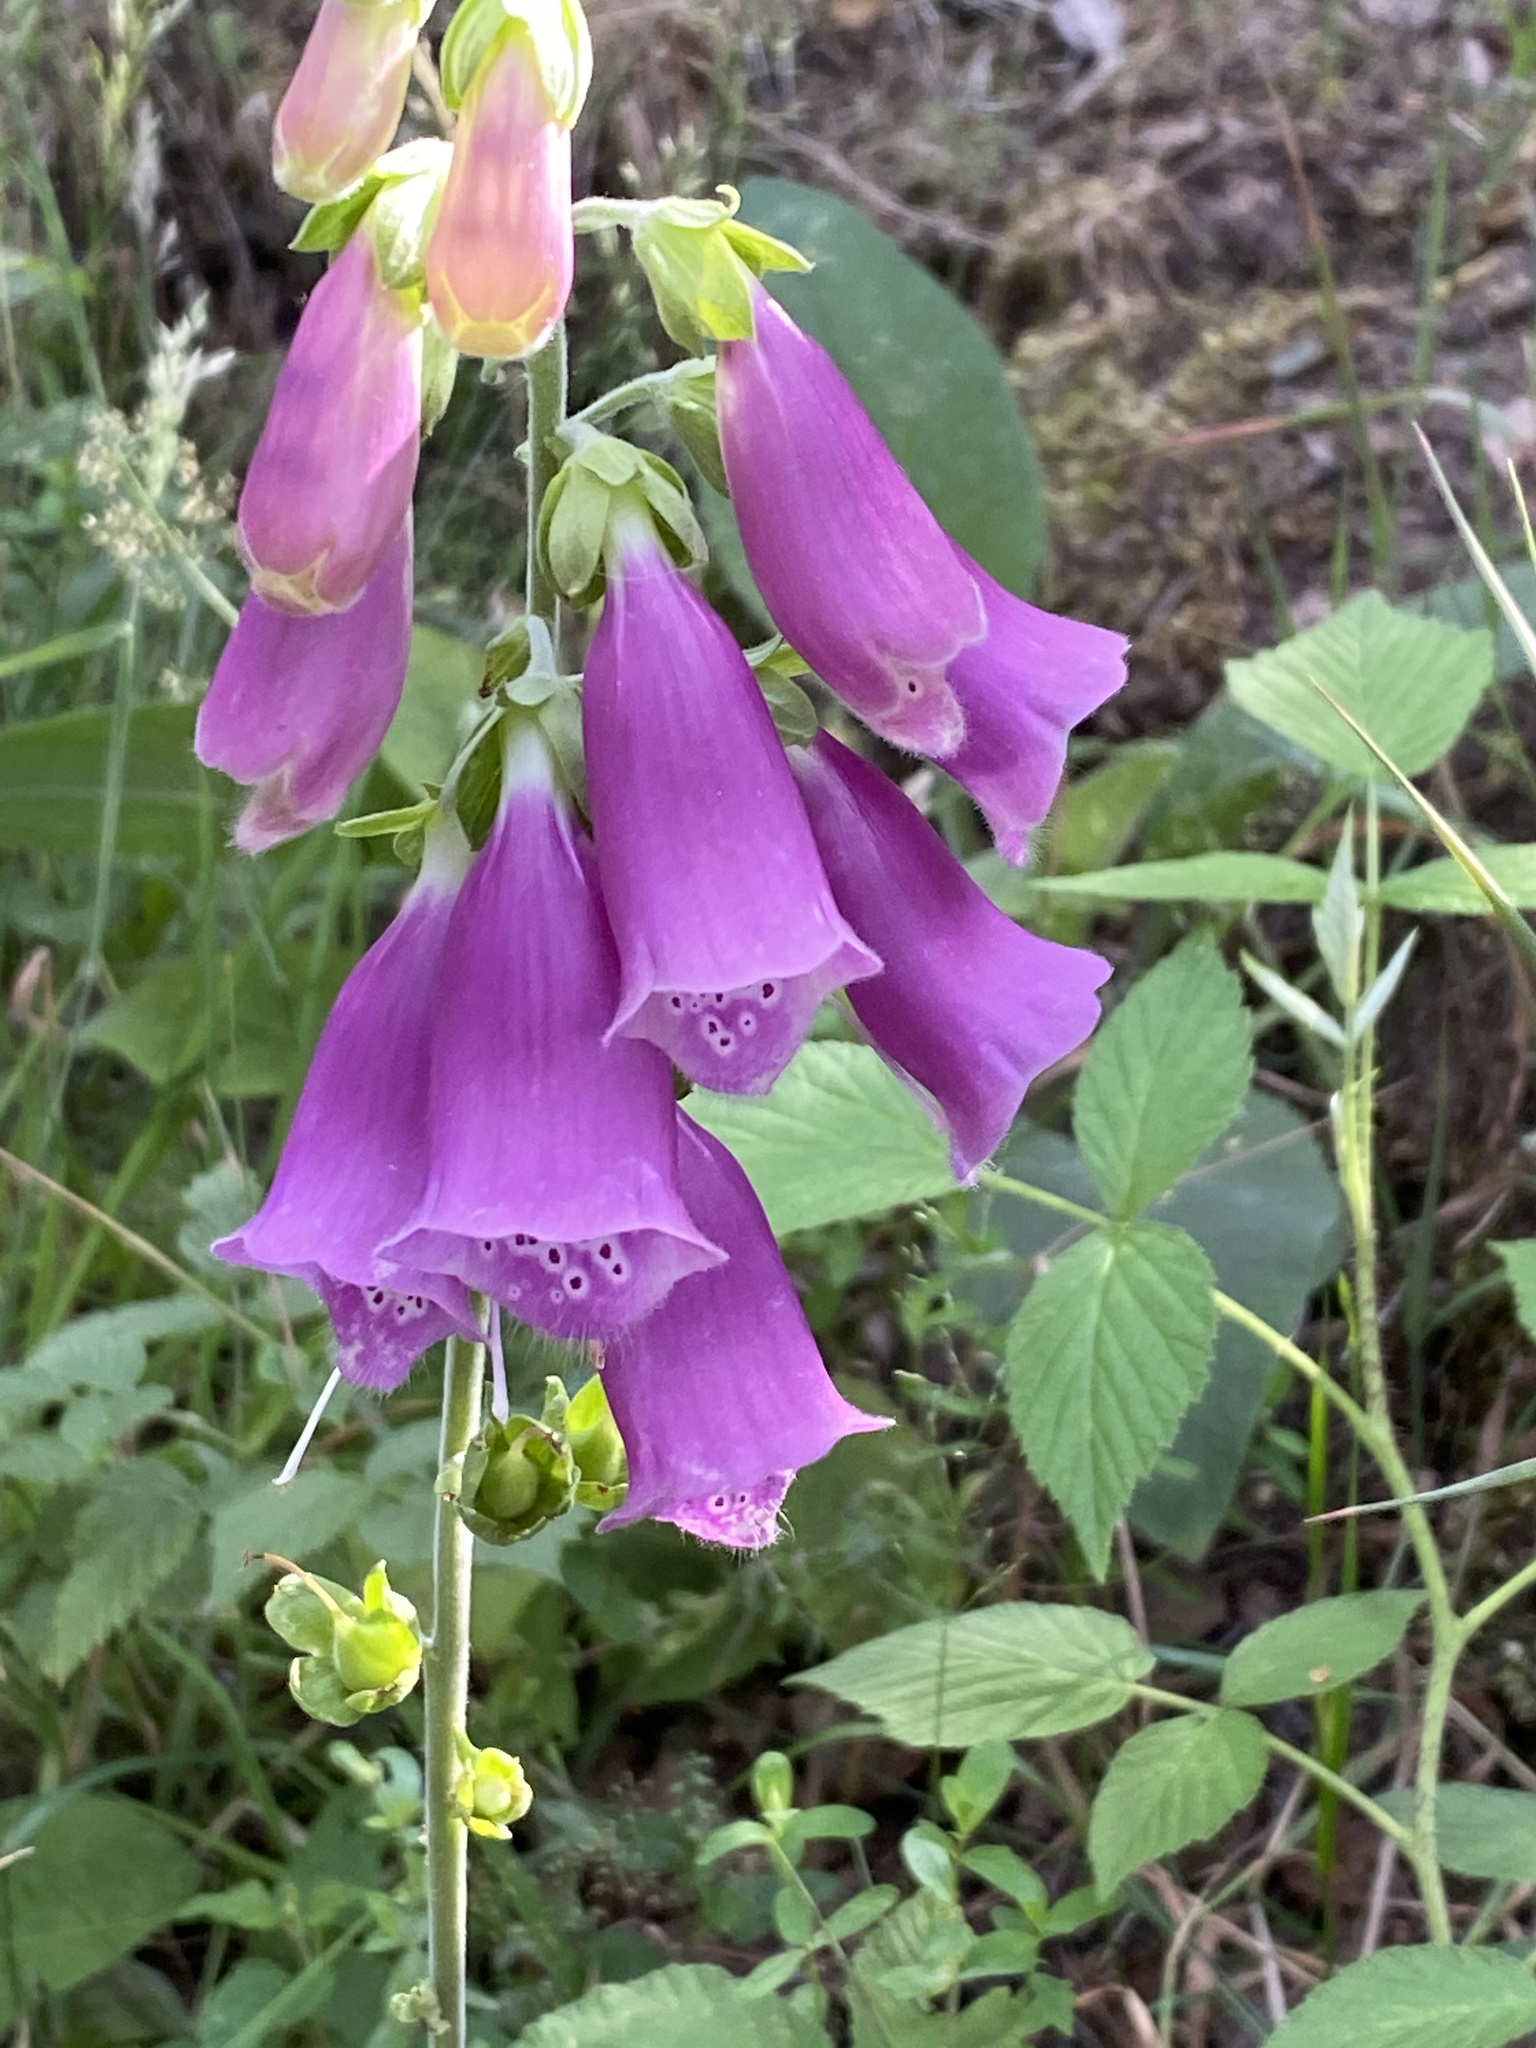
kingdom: Plantae
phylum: Tracheophyta
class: Magnoliopsida
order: Lamiales
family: Plantaginaceae
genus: Digitalis
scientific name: Digitalis purpurea
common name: Foxglove
